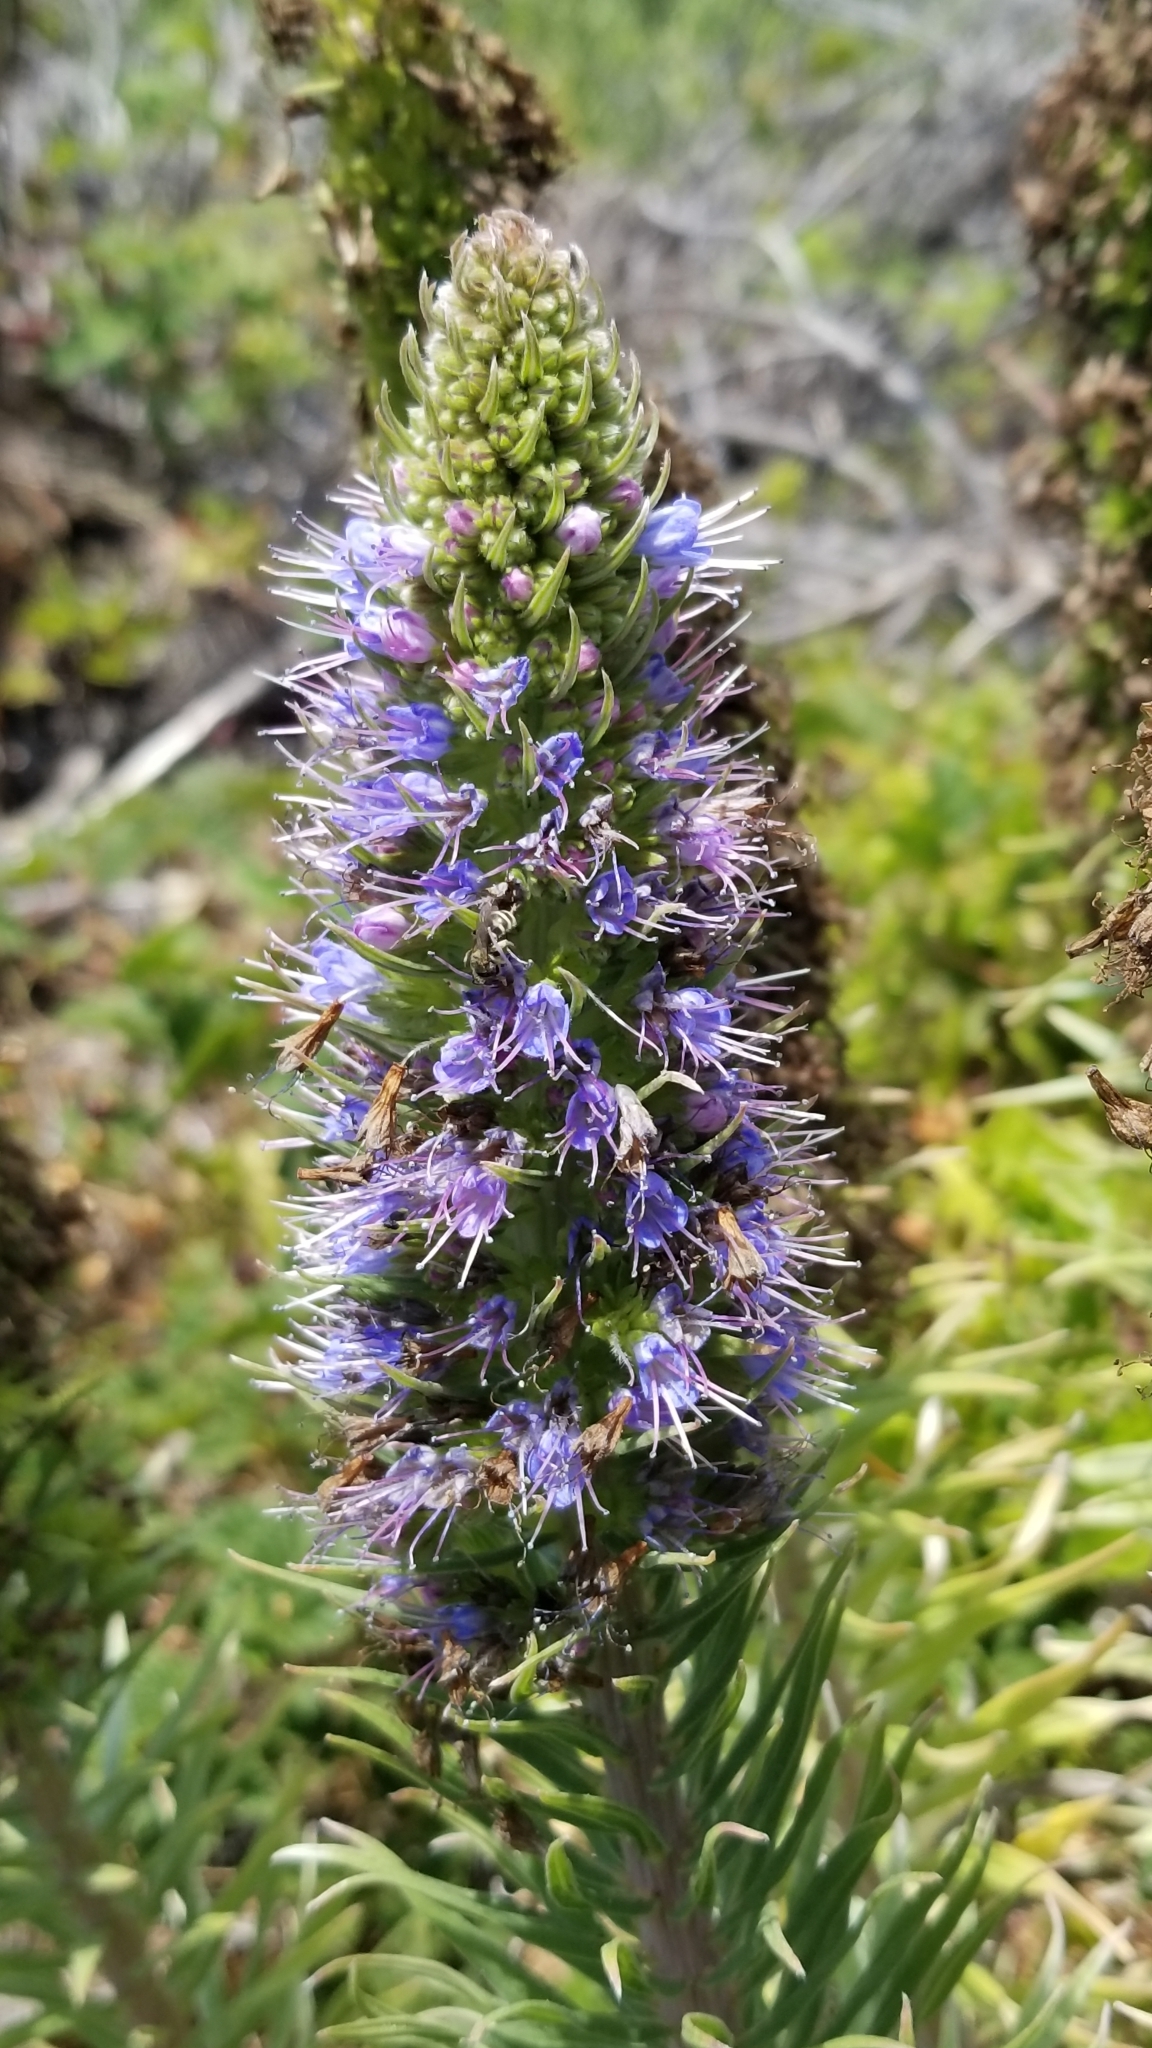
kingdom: Plantae
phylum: Tracheophyta
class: Magnoliopsida
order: Boraginales
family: Boraginaceae
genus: Echium
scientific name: Echium candicans
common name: Pride of madeira
